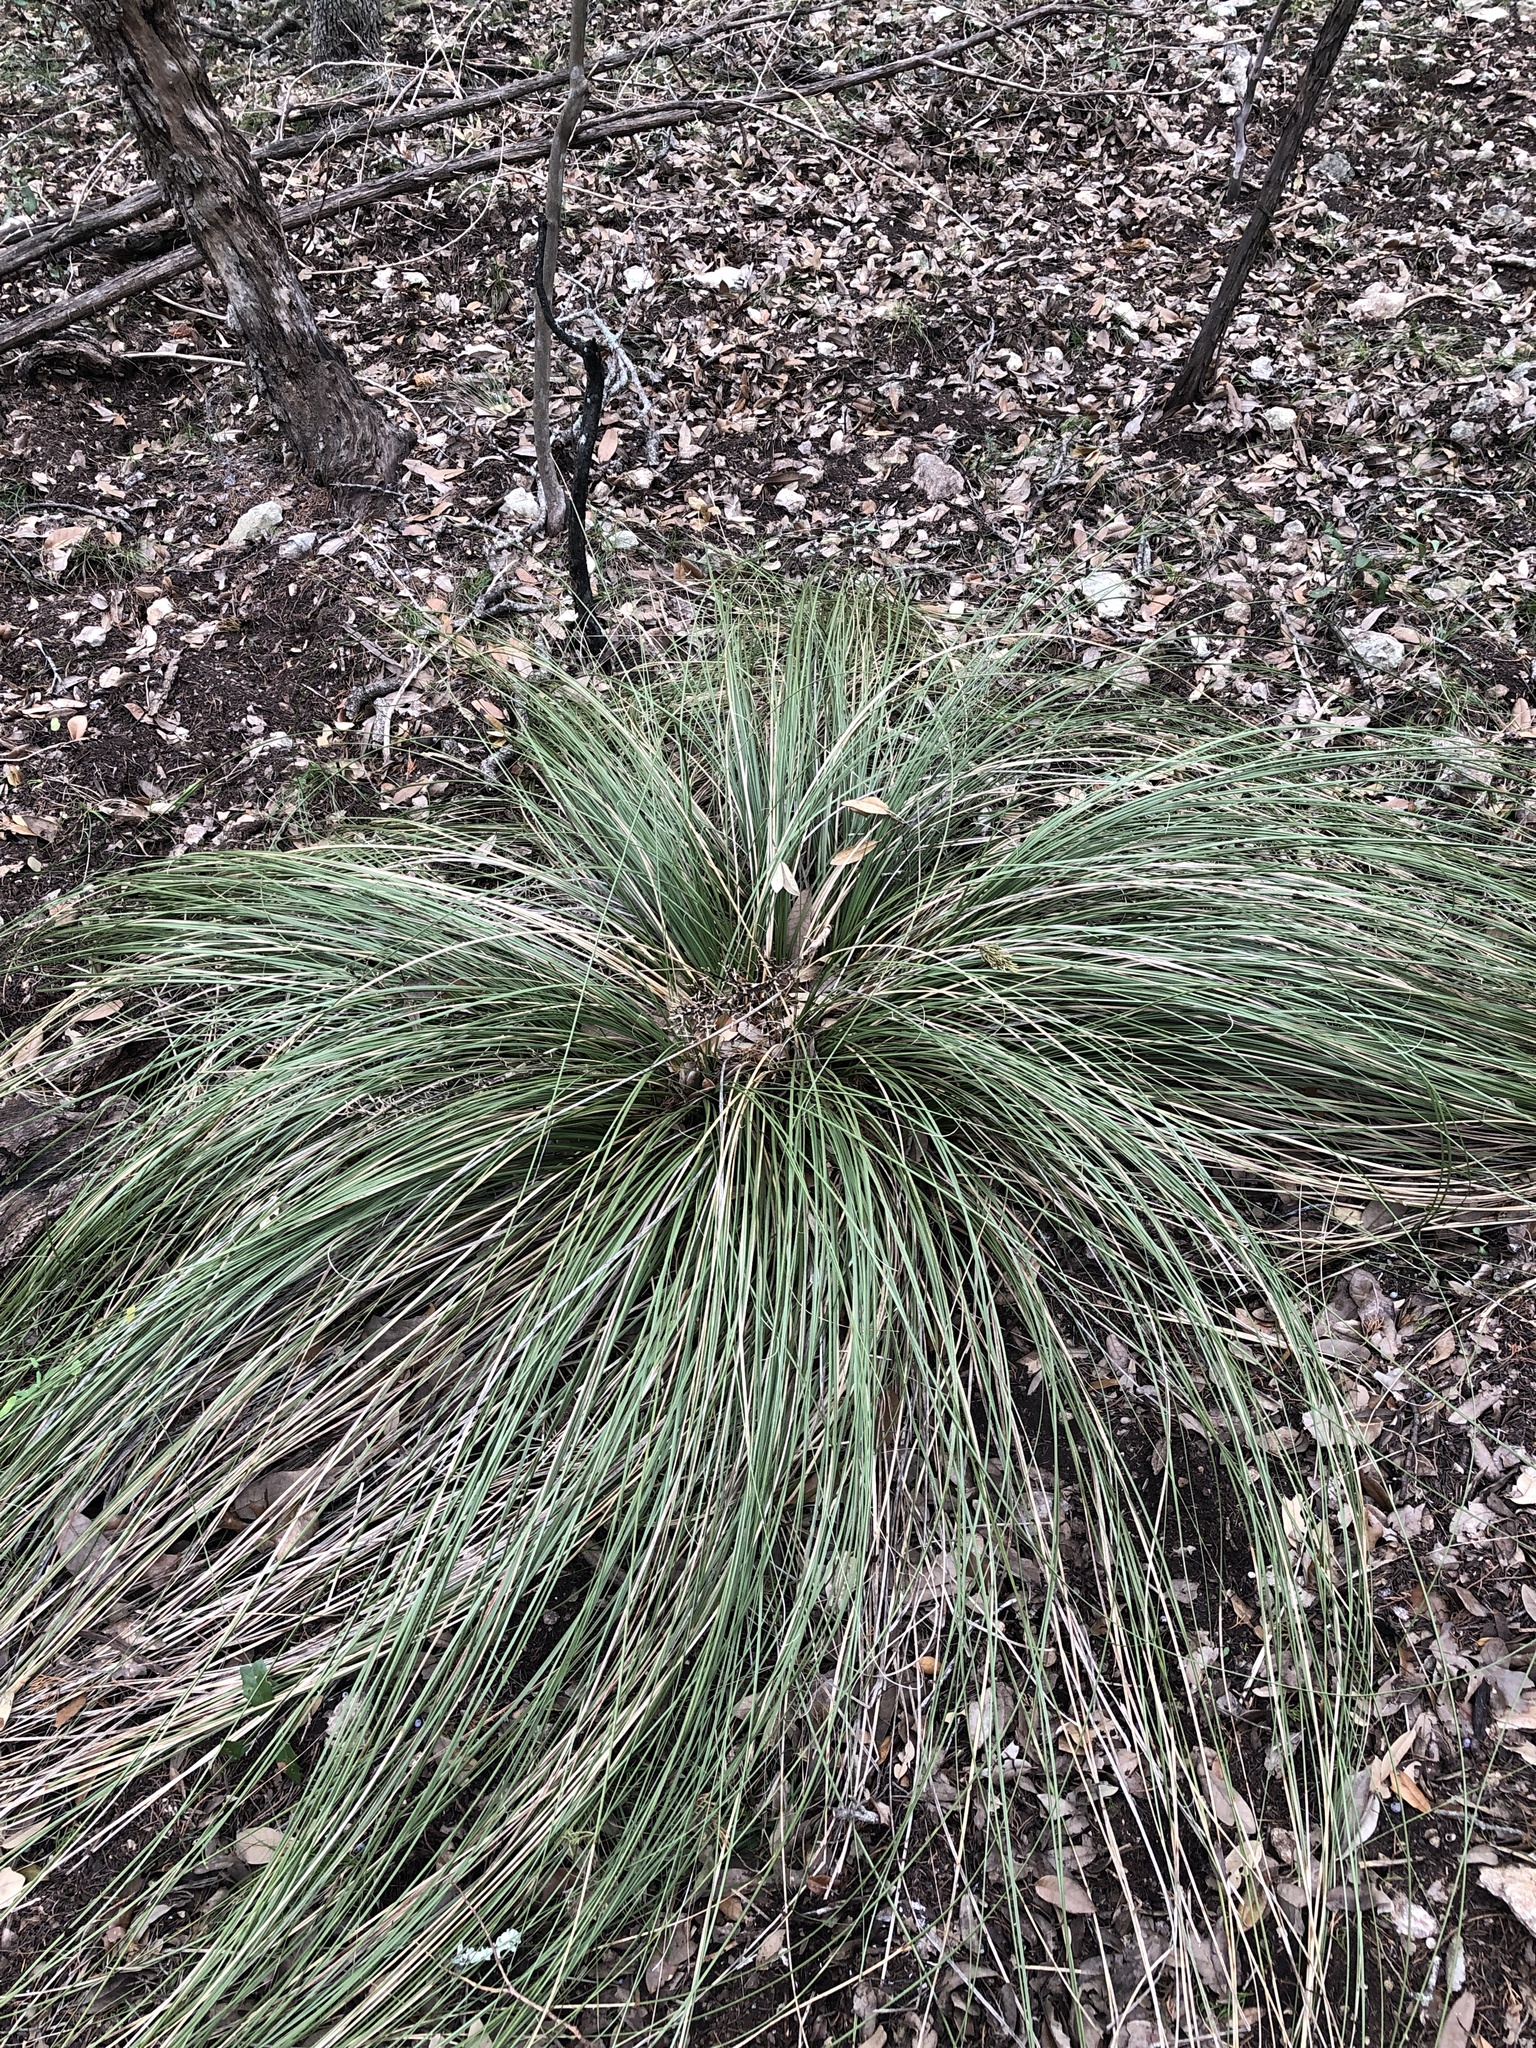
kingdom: Plantae
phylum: Tracheophyta
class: Liliopsida
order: Asparagales
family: Asparagaceae
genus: Nolina
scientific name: Nolina texana
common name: Texas sacahuiste
